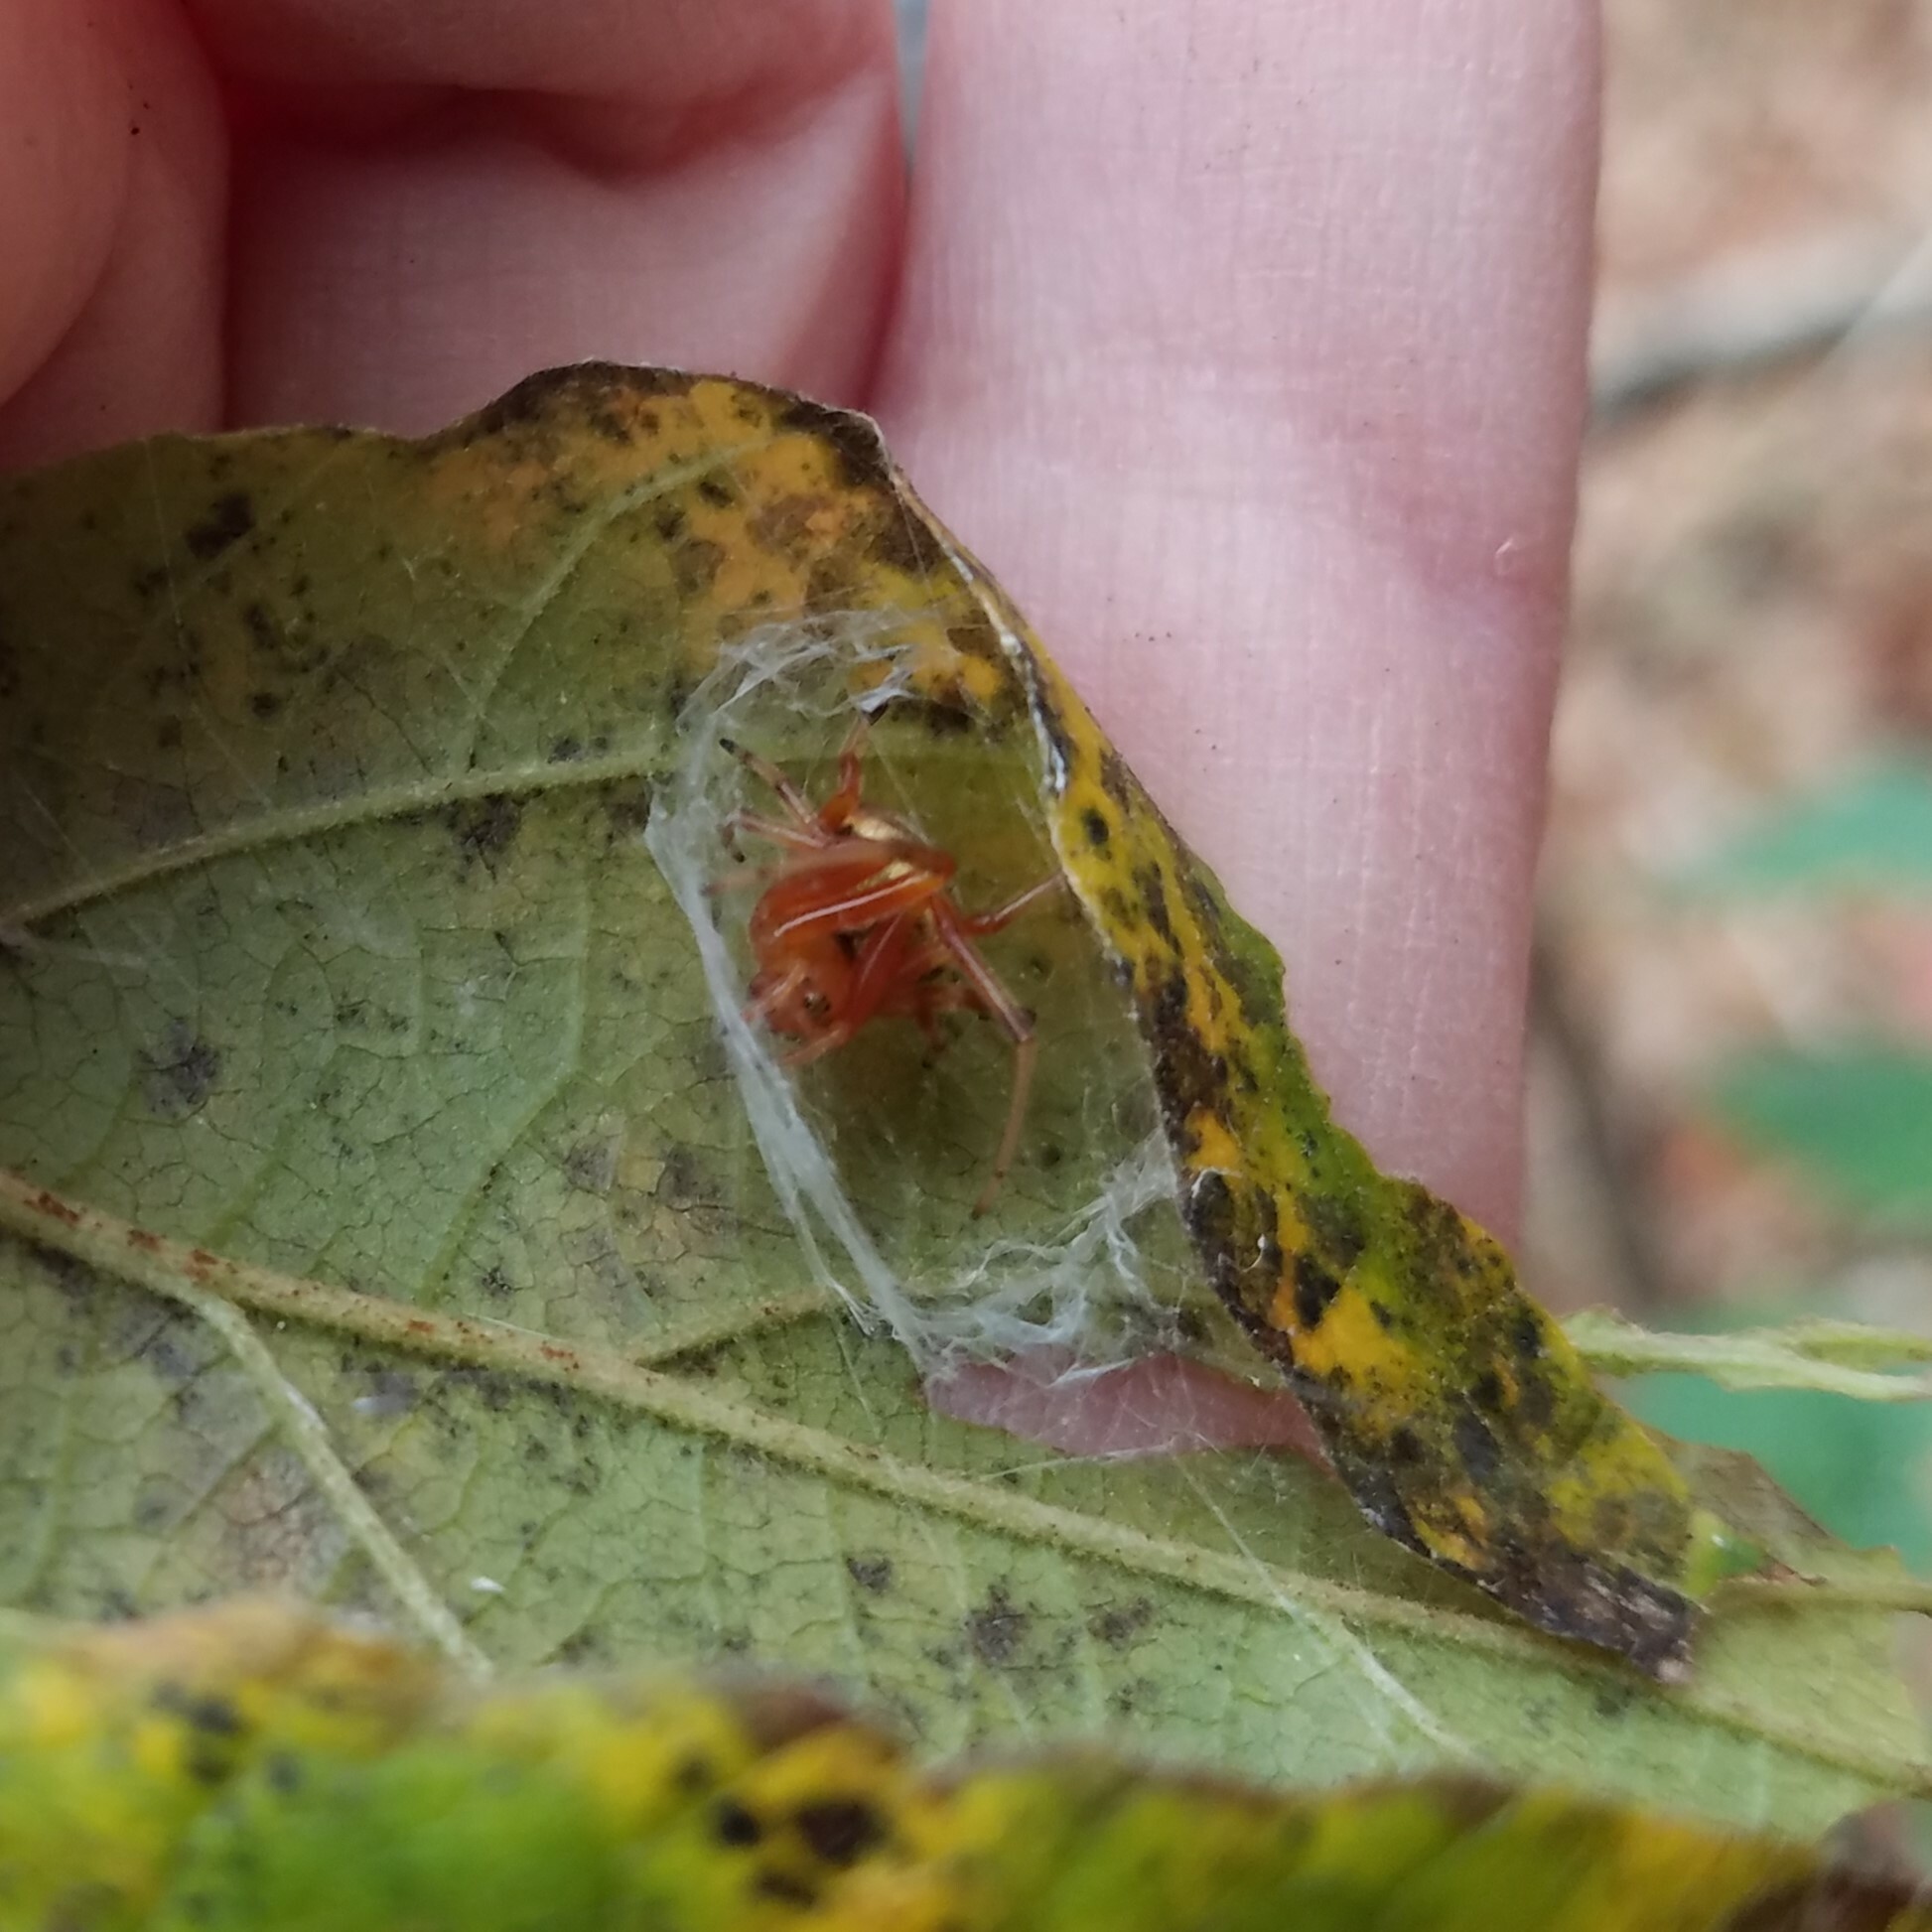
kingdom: Animalia
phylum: Arthropoda
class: Arachnida
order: Araneae
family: Araneidae
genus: Araneus
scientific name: Araneus thaddeus
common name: Lattice orbweaver
